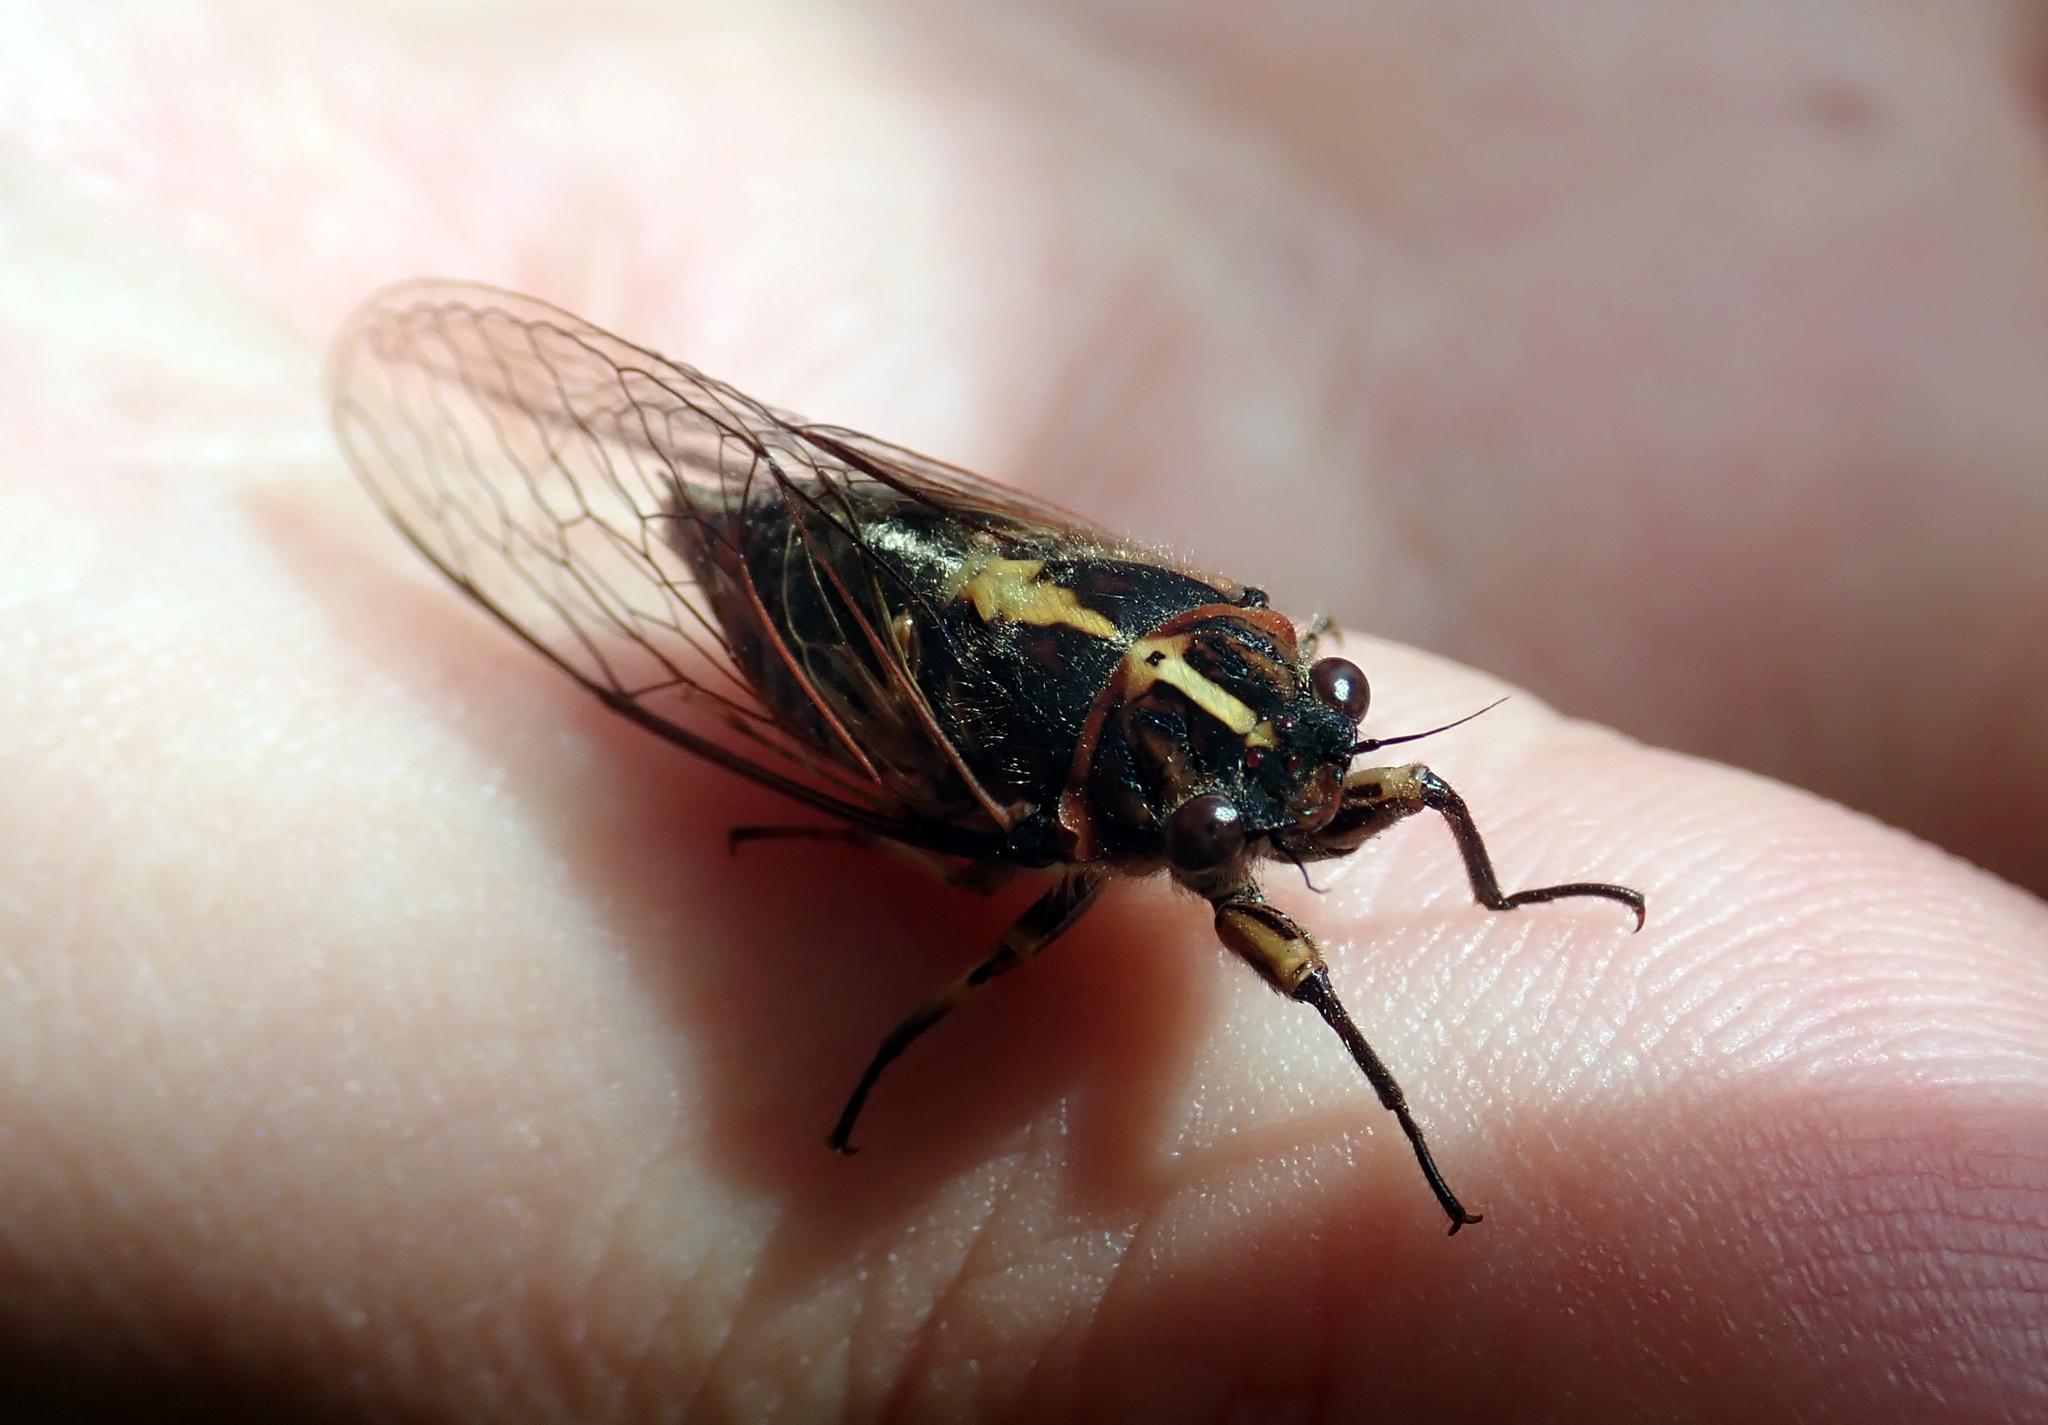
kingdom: Animalia
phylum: Arthropoda
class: Insecta
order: Hemiptera
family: Cicadidae
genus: Kikihia
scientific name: Kikihia longula
